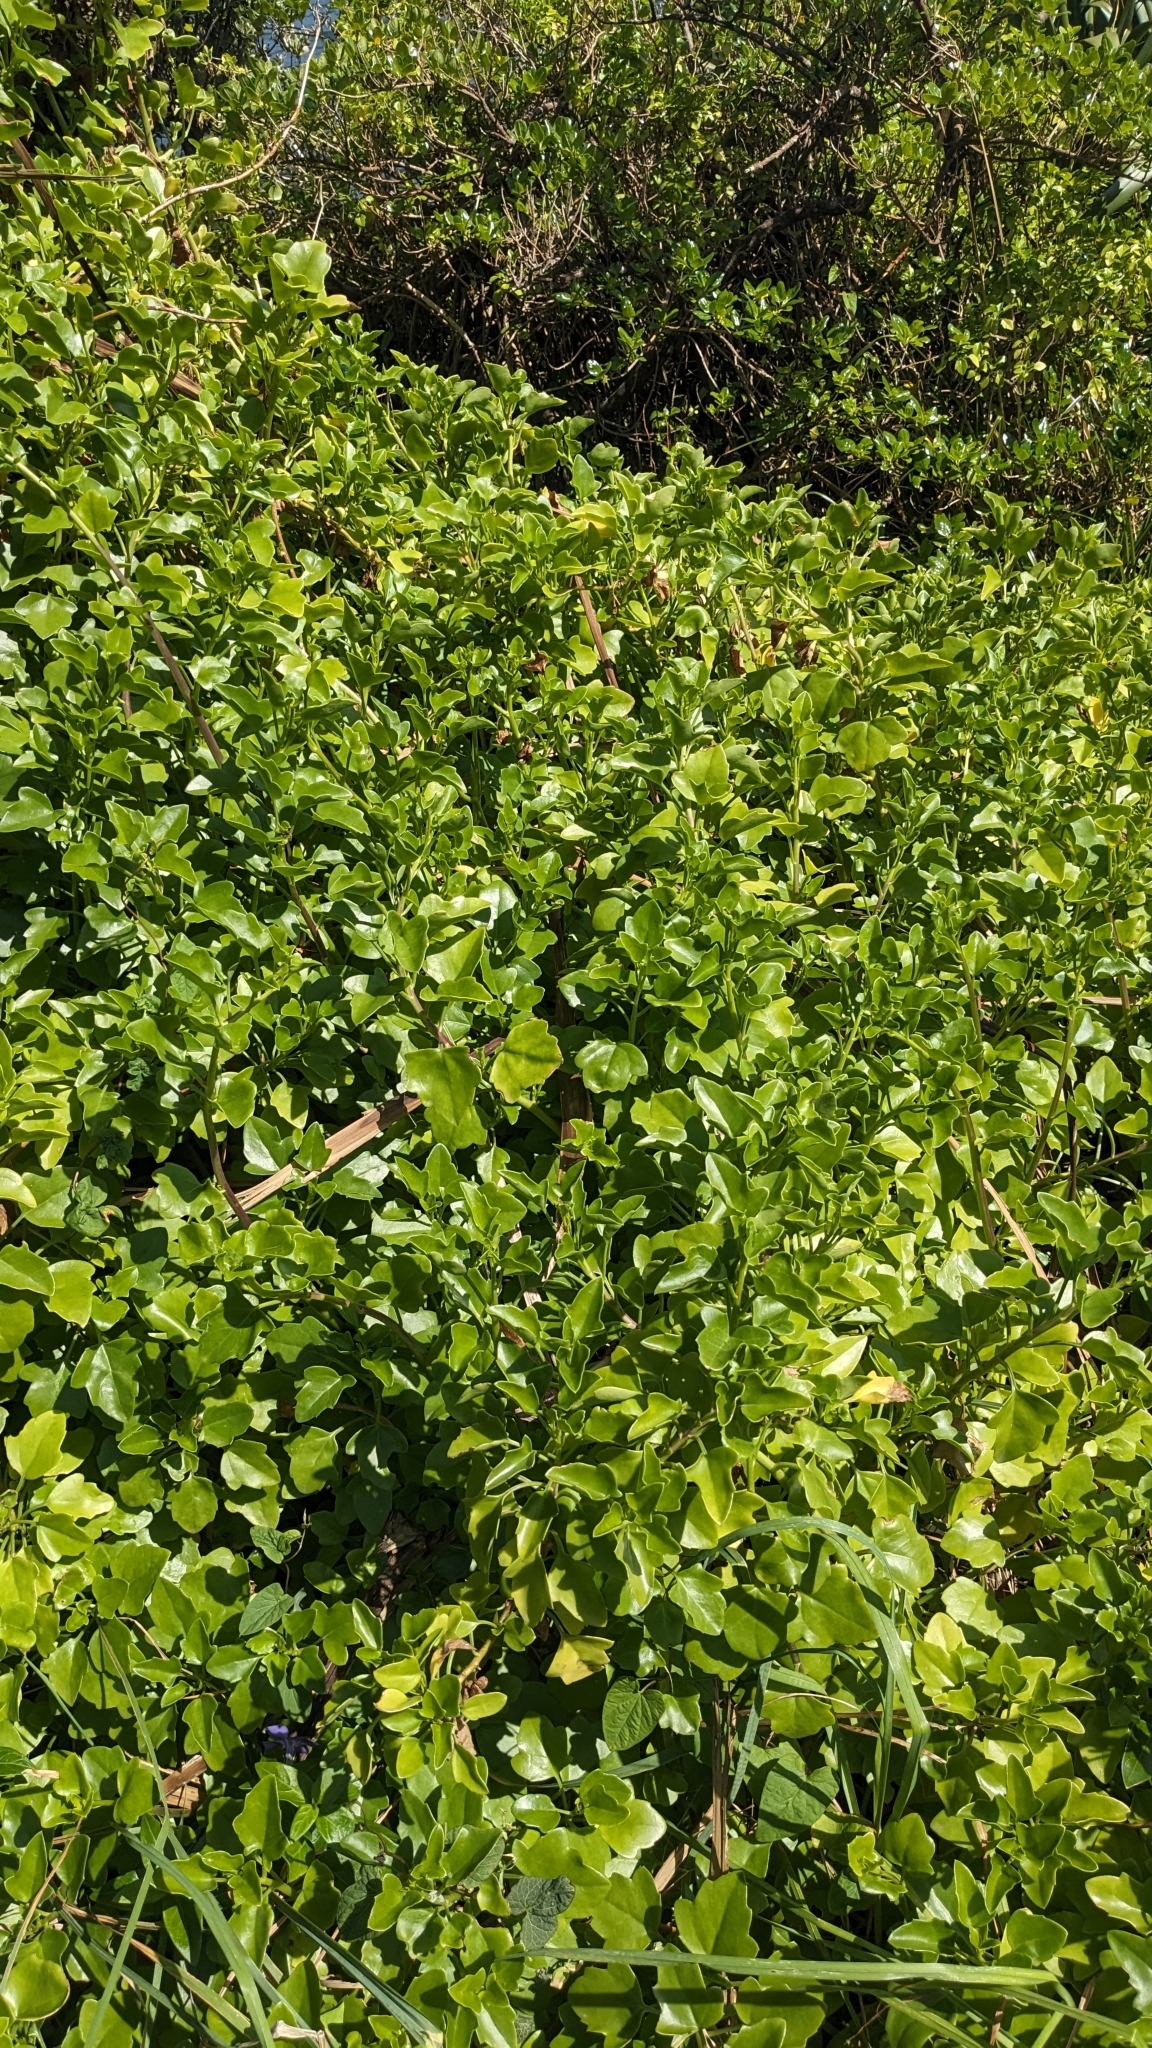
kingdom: Plantae
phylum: Tracheophyta
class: Magnoliopsida
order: Asterales
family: Asteraceae
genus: Senecio
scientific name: Senecio angulatus
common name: Climbing groundsel
